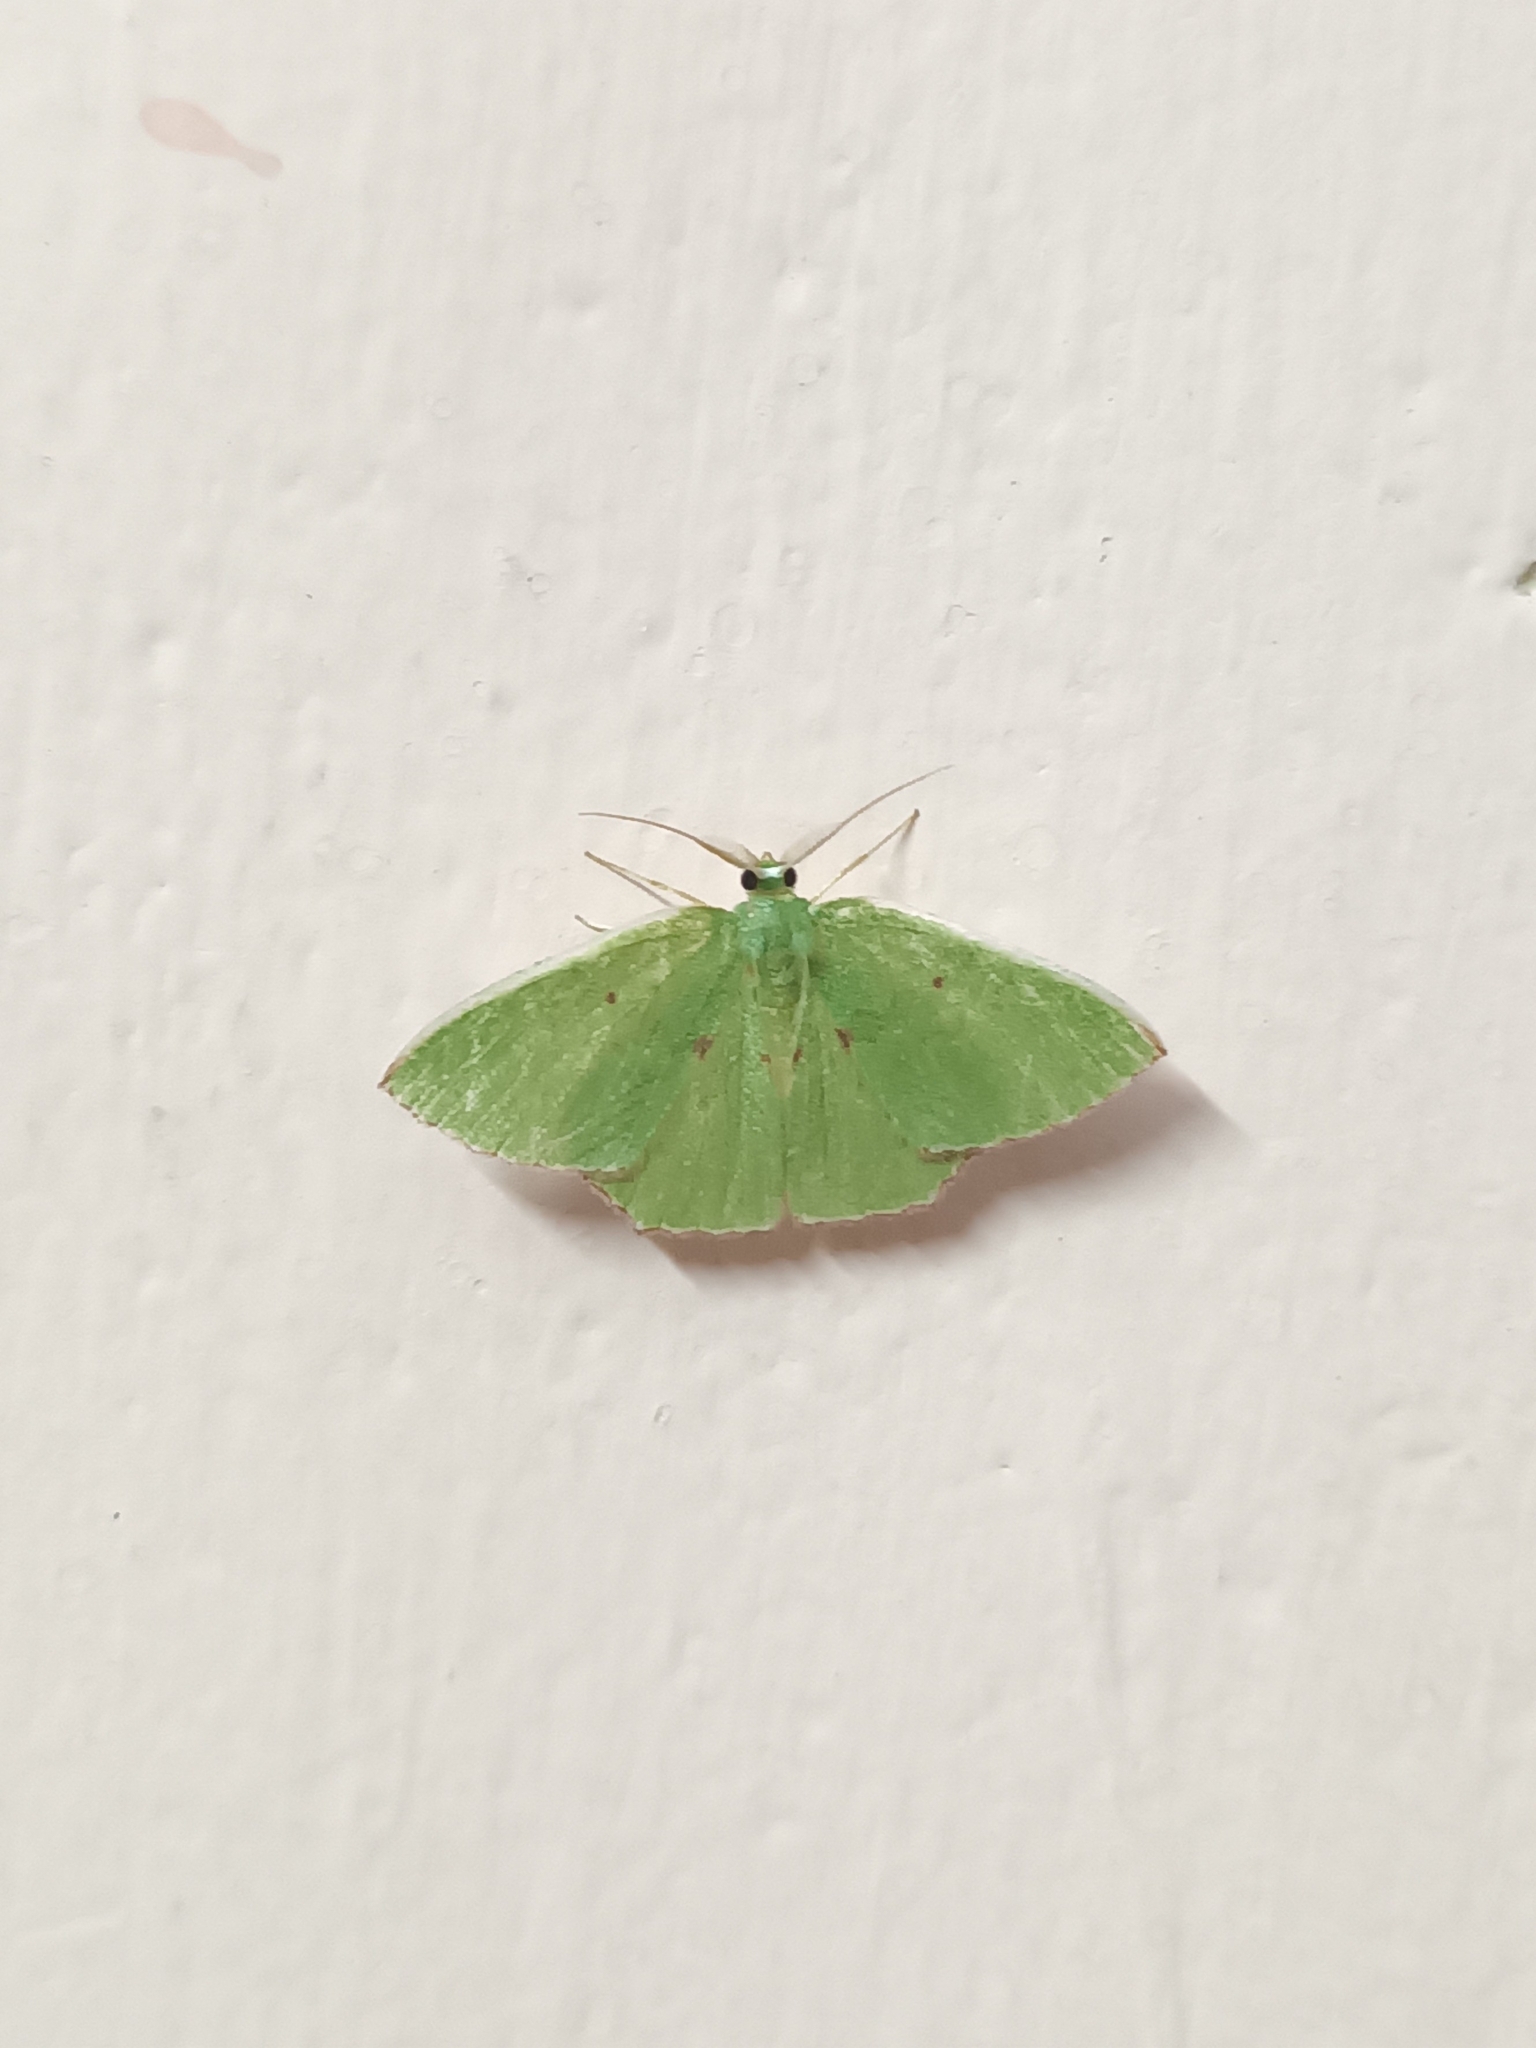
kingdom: Animalia
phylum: Arthropoda
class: Insecta
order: Lepidoptera
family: Geometridae
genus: Oenospila
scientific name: Oenospila flavifusata
